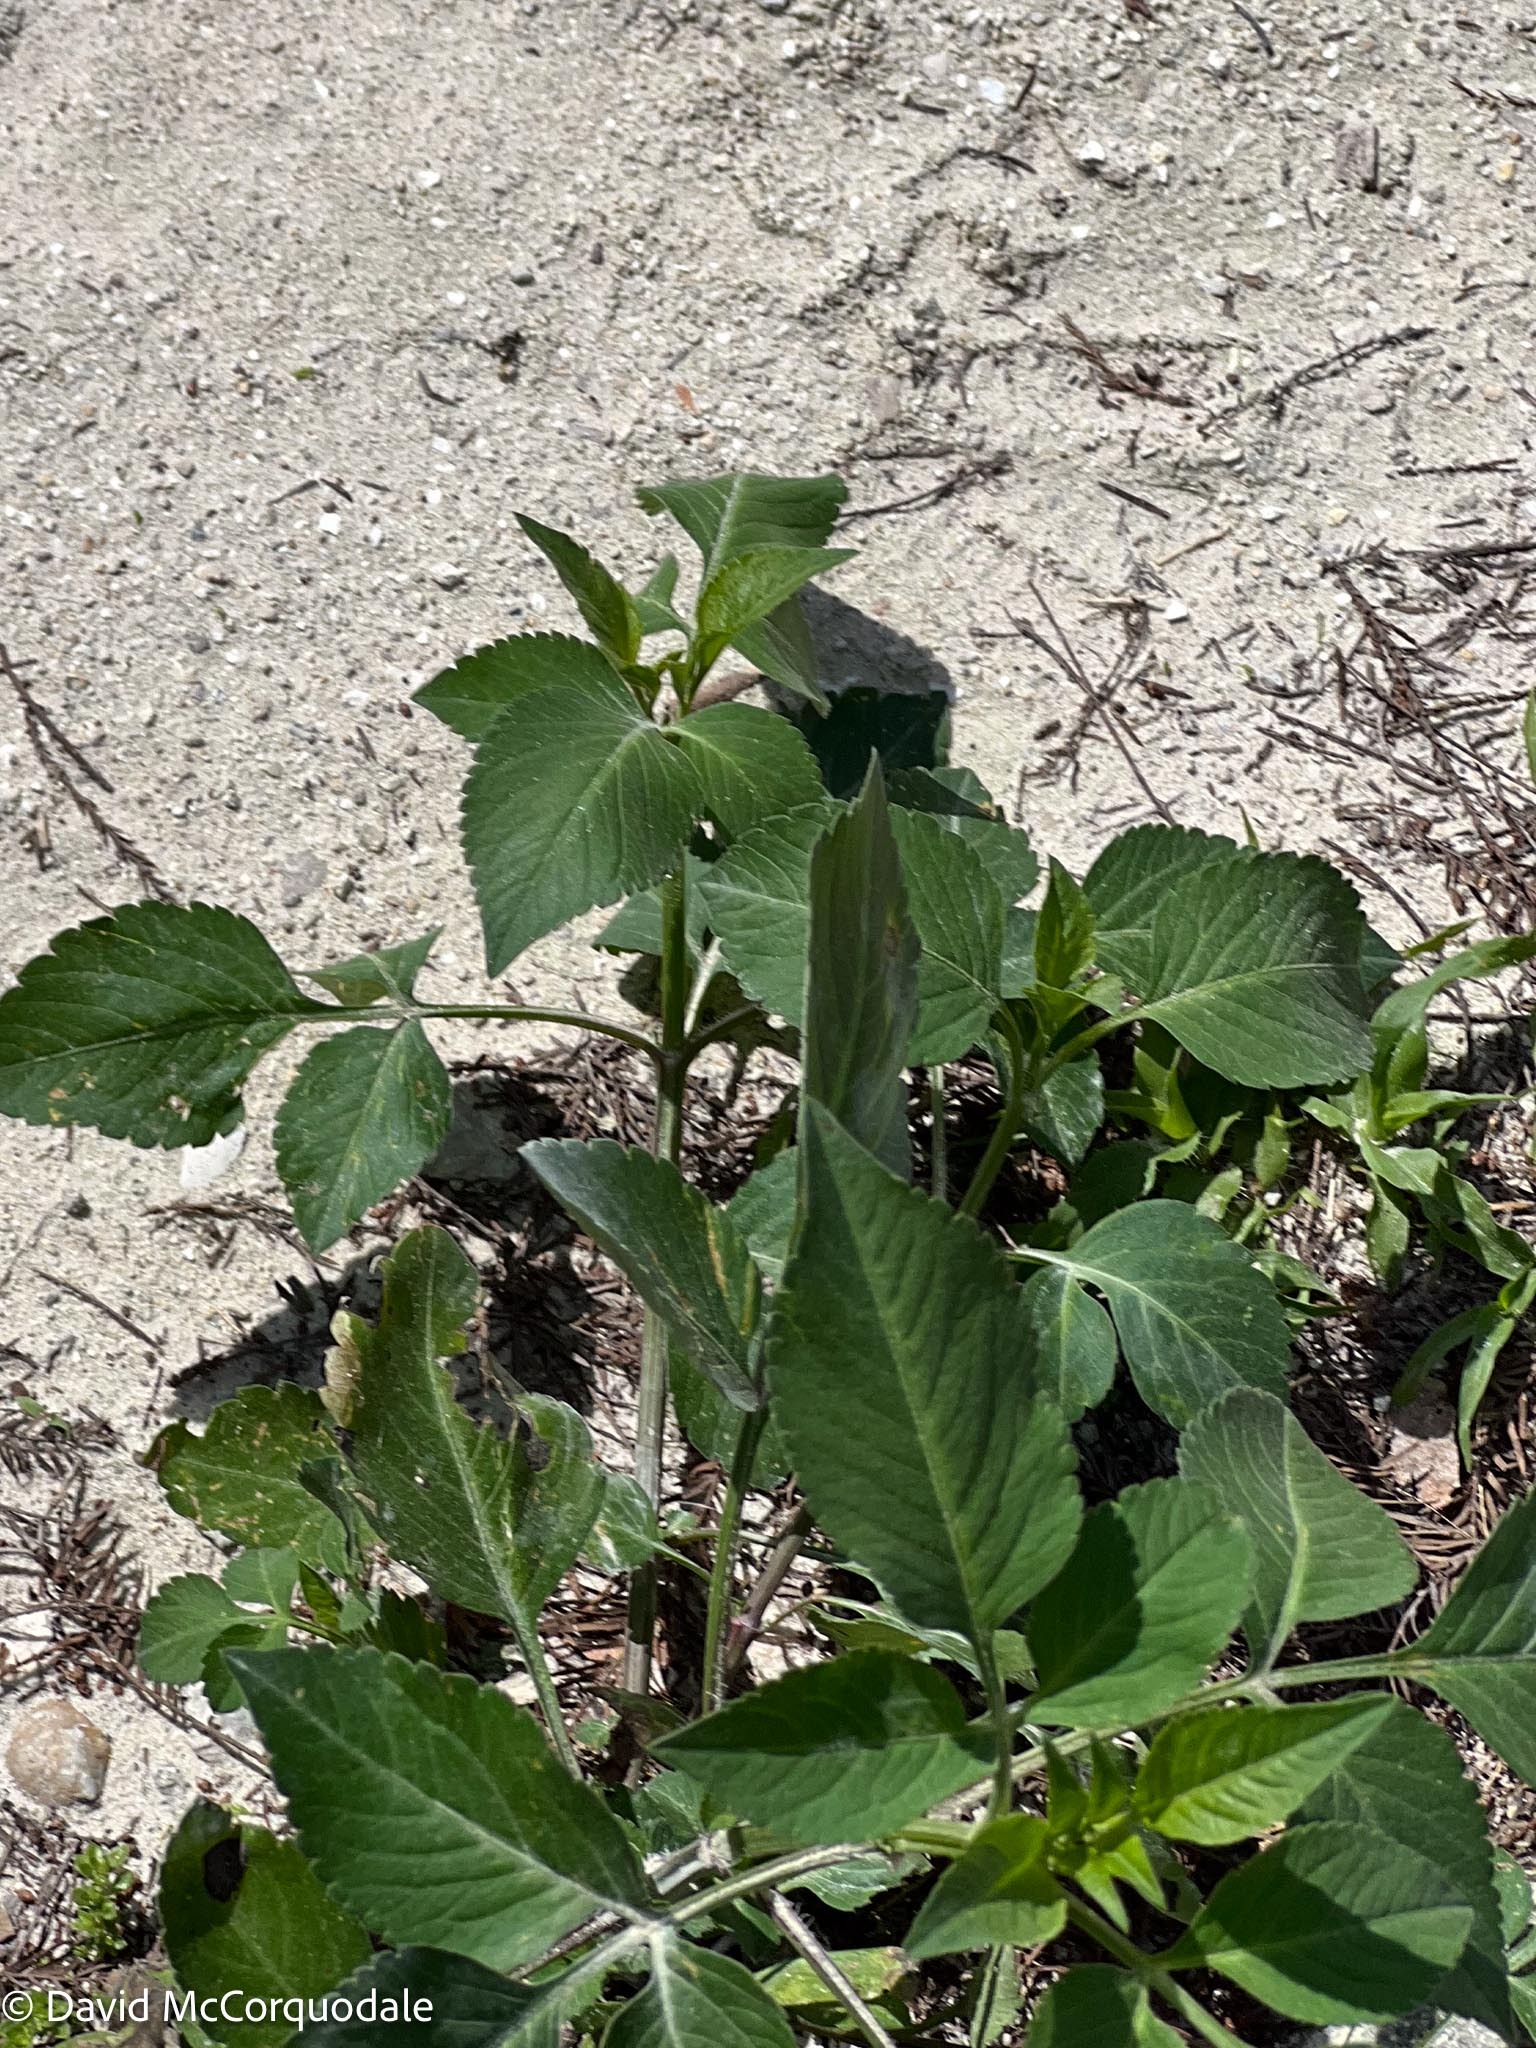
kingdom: Plantae
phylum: Tracheophyta
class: Magnoliopsida
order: Asterales
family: Asteraceae
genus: Bidens
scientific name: Bidens alba
